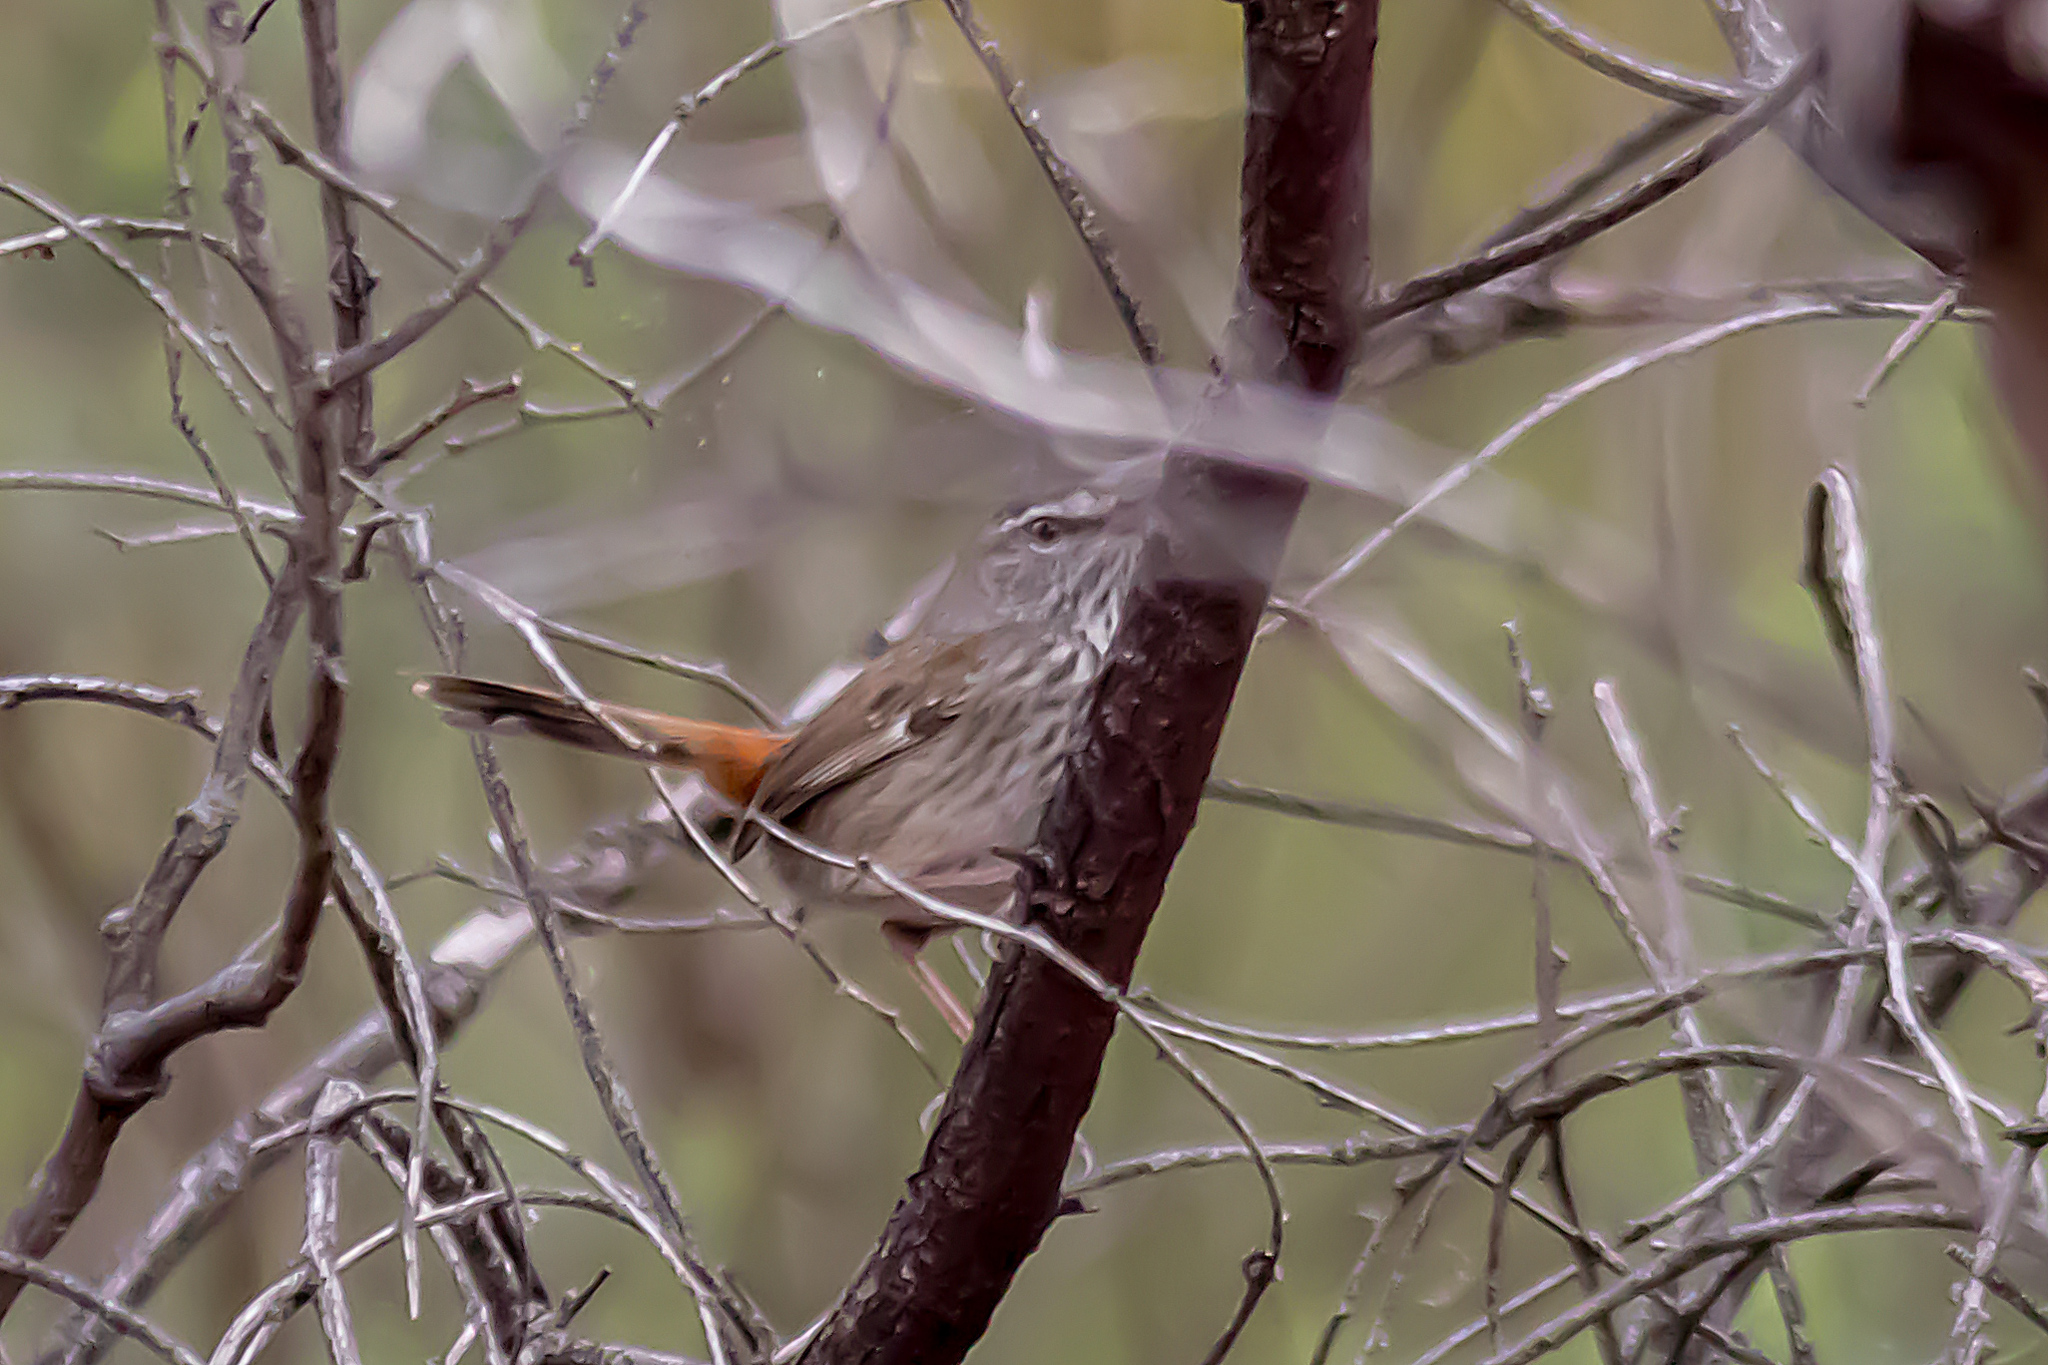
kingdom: Animalia
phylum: Chordata
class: Aves
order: Passeriformes
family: Acanthizidae
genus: Calamanthus
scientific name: Calamanthus pyrrhopygius
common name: Chestnut-rumped heathwren
